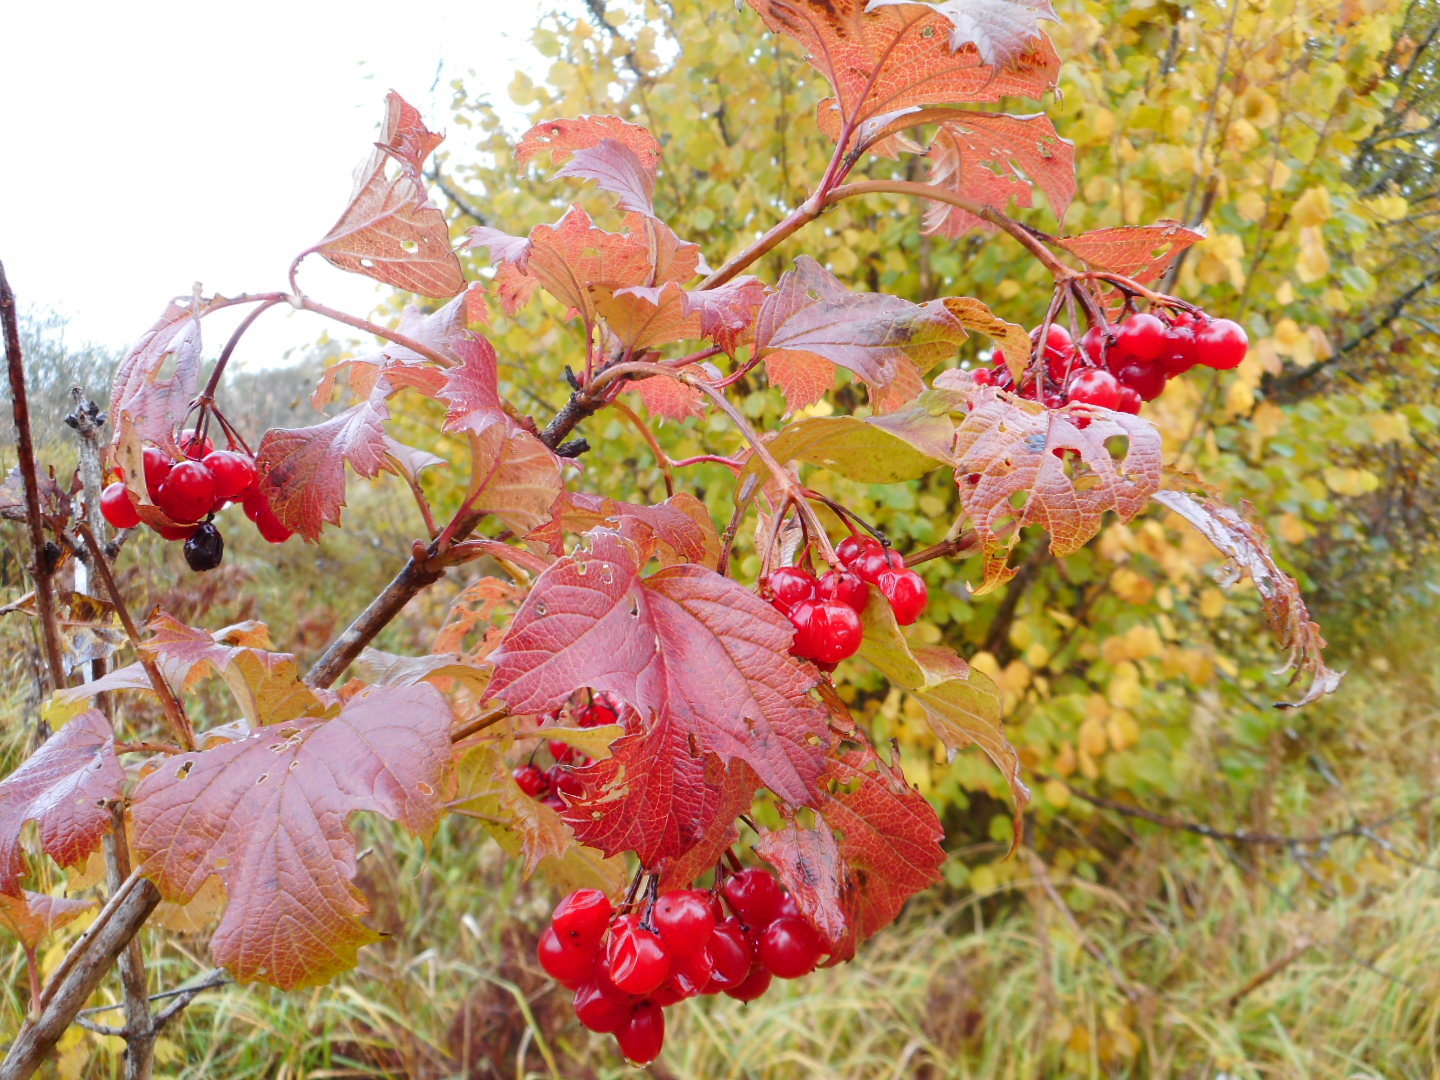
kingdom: Plantae
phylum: Tracheophyta
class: Magnoliopsida
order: Dipsacales
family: Viburnaceae
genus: Viburnum
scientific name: Viburnum opulus
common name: Guelder-rose
